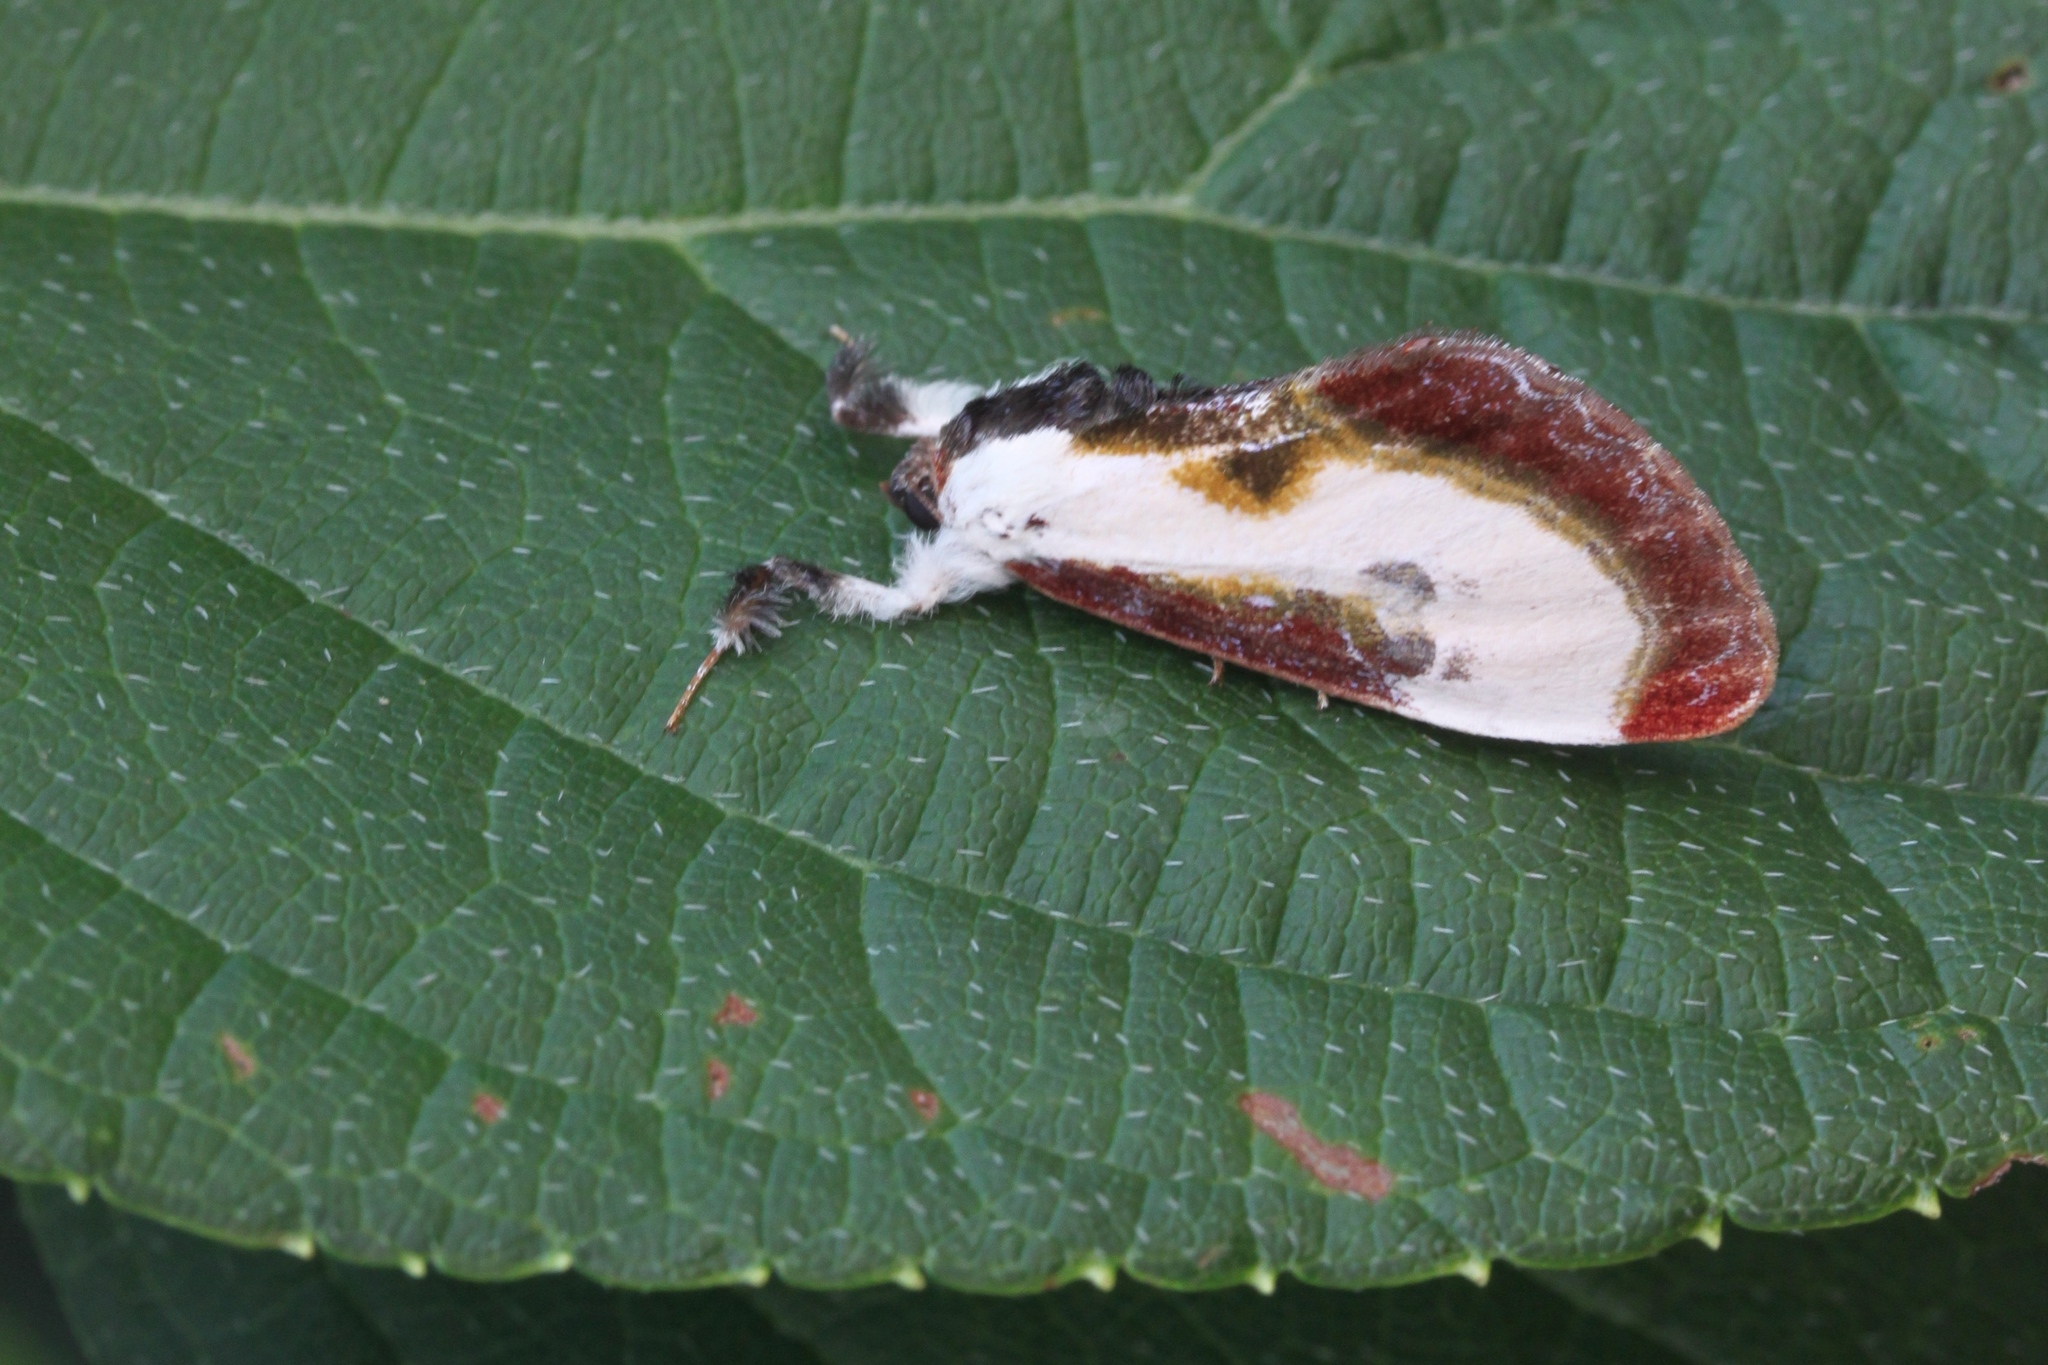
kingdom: Animalia
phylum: Arthropoda
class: Insecta
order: Lepidoptera
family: Noctuidae
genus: Eudryas
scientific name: Eudryas grata
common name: Beautiful wood-nymph
